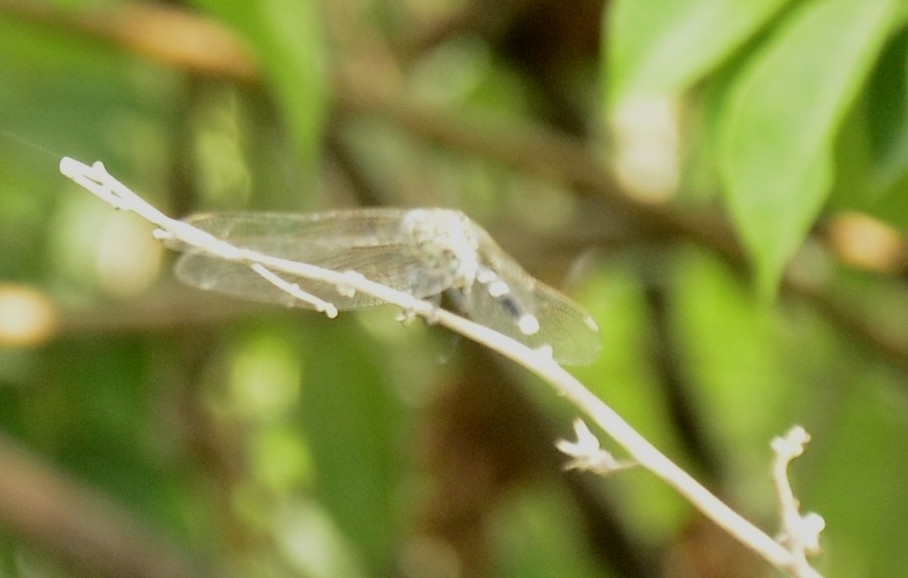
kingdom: Animalia
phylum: Arthropoda
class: Insecta
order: Odonata
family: Libellulidae
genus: Orthetrum
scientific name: Orthetrum sabina
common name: Slender skimmer
